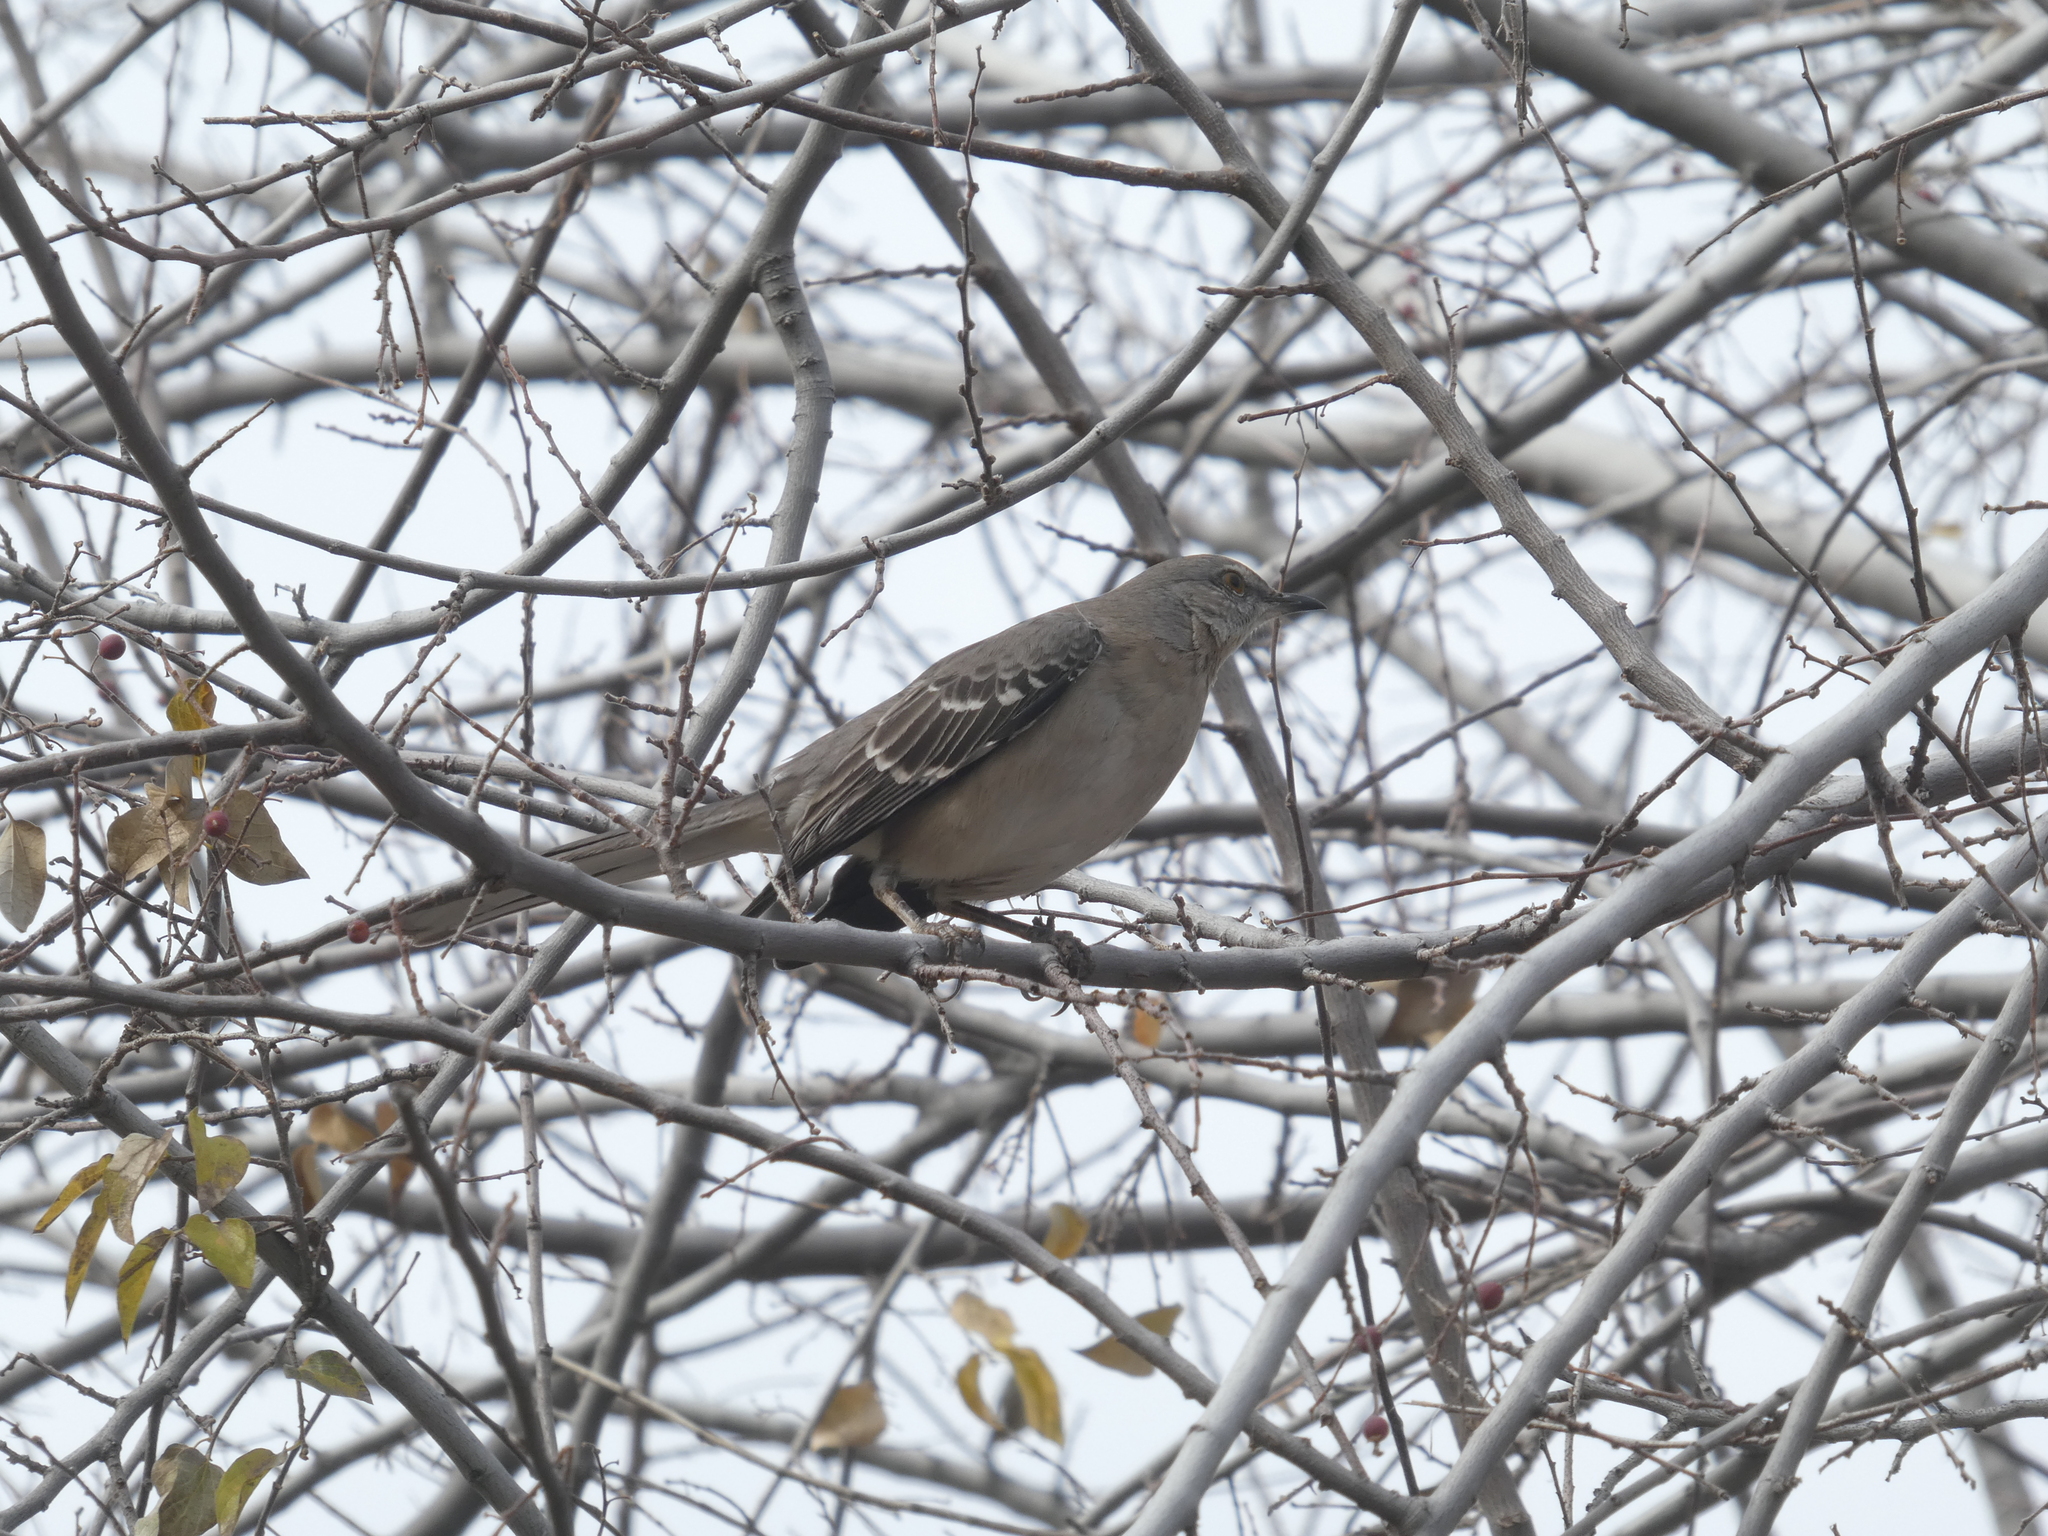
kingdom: Animalia
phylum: Chordata
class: Aves
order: Passeriformes
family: Mimidae
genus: Mimus
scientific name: Mimus polyglottos
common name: Northern mockingbird
